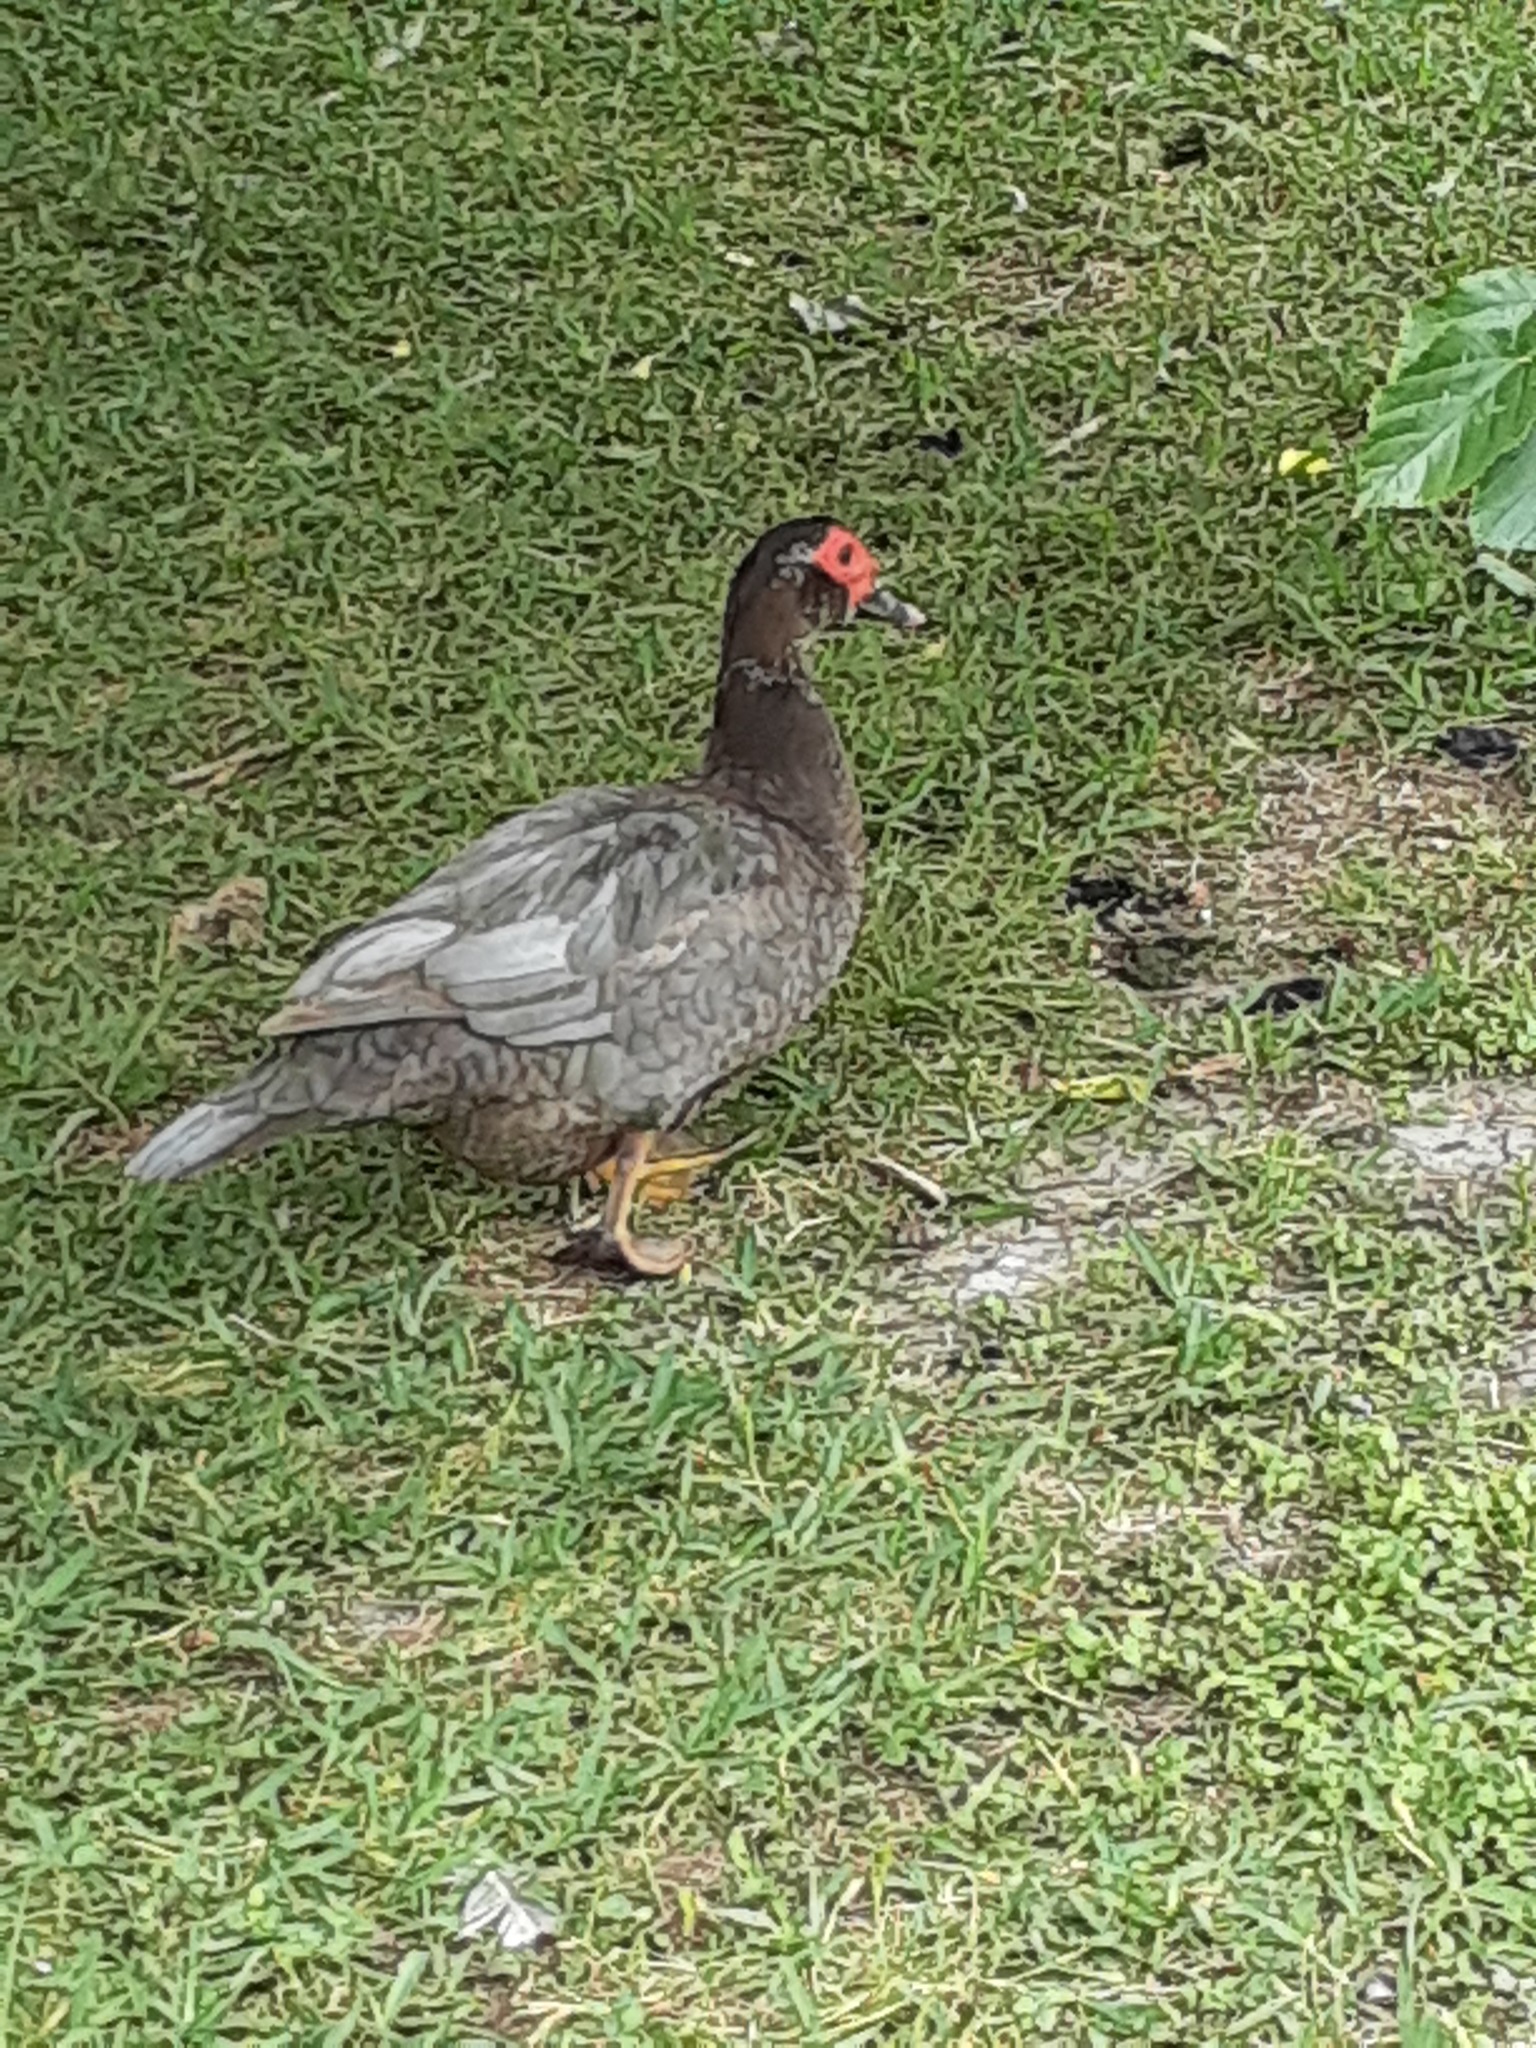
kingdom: Animalia
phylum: Chordata
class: Aves
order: Anseriformes
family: Anatidae
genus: Cairina
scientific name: Cairina moschata
